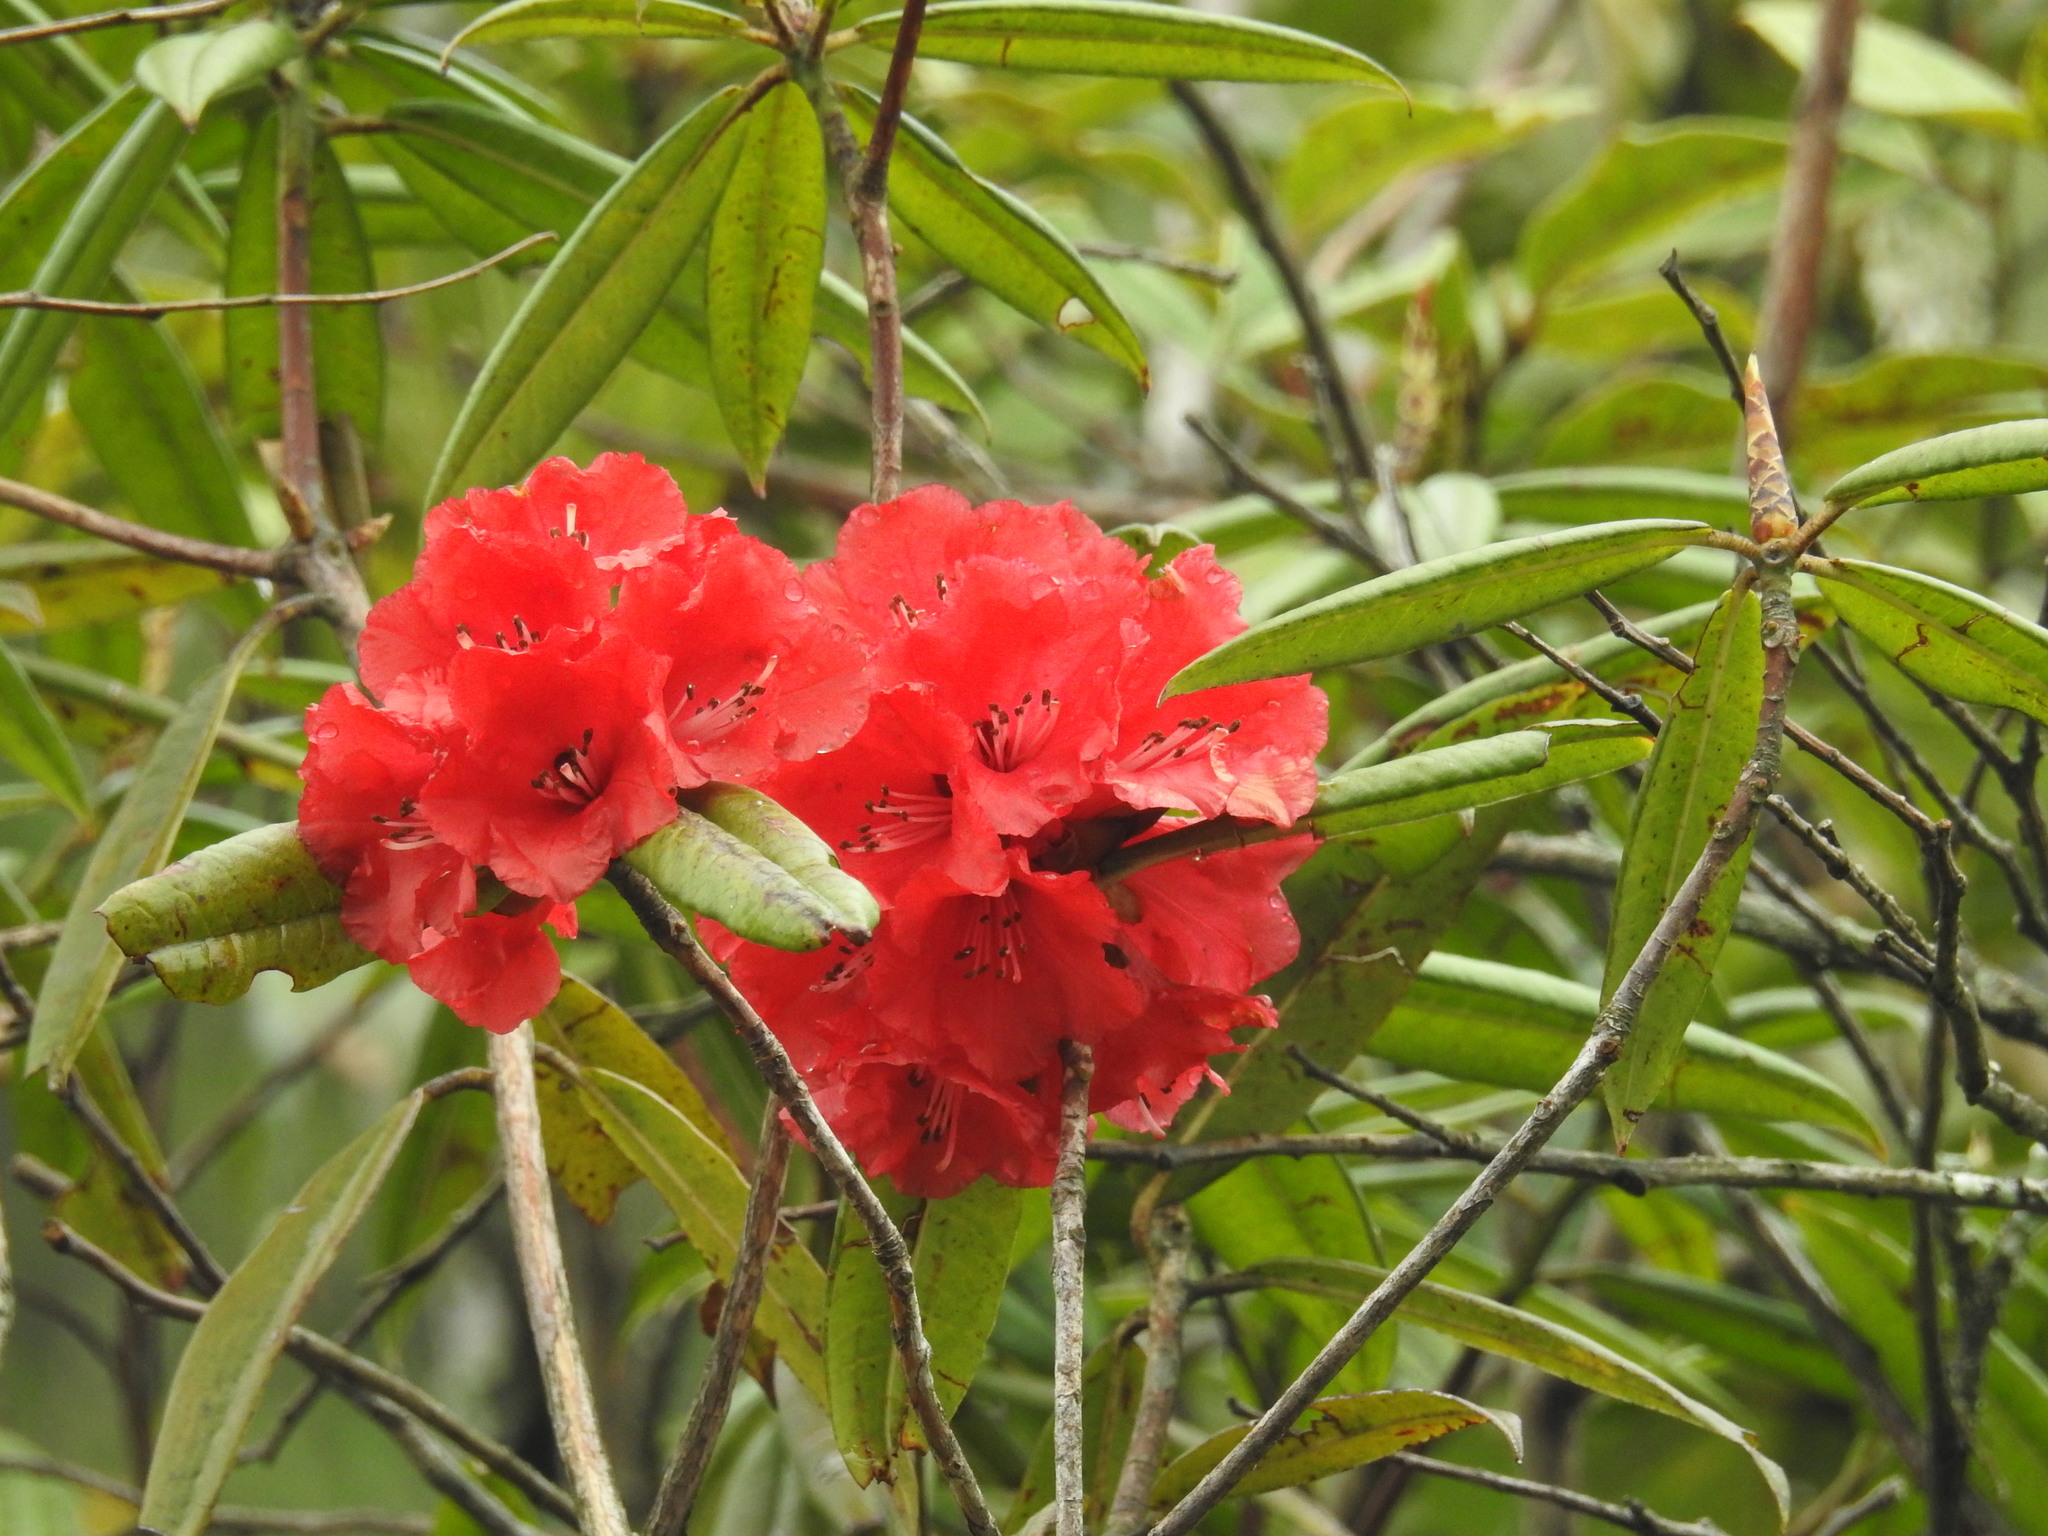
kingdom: Plantae
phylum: Tracheophyta
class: Magnoliopsida
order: Ericales
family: Ericaceae
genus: Rhododendron
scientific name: Rhododendron arboreum
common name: Tree rhododendron
